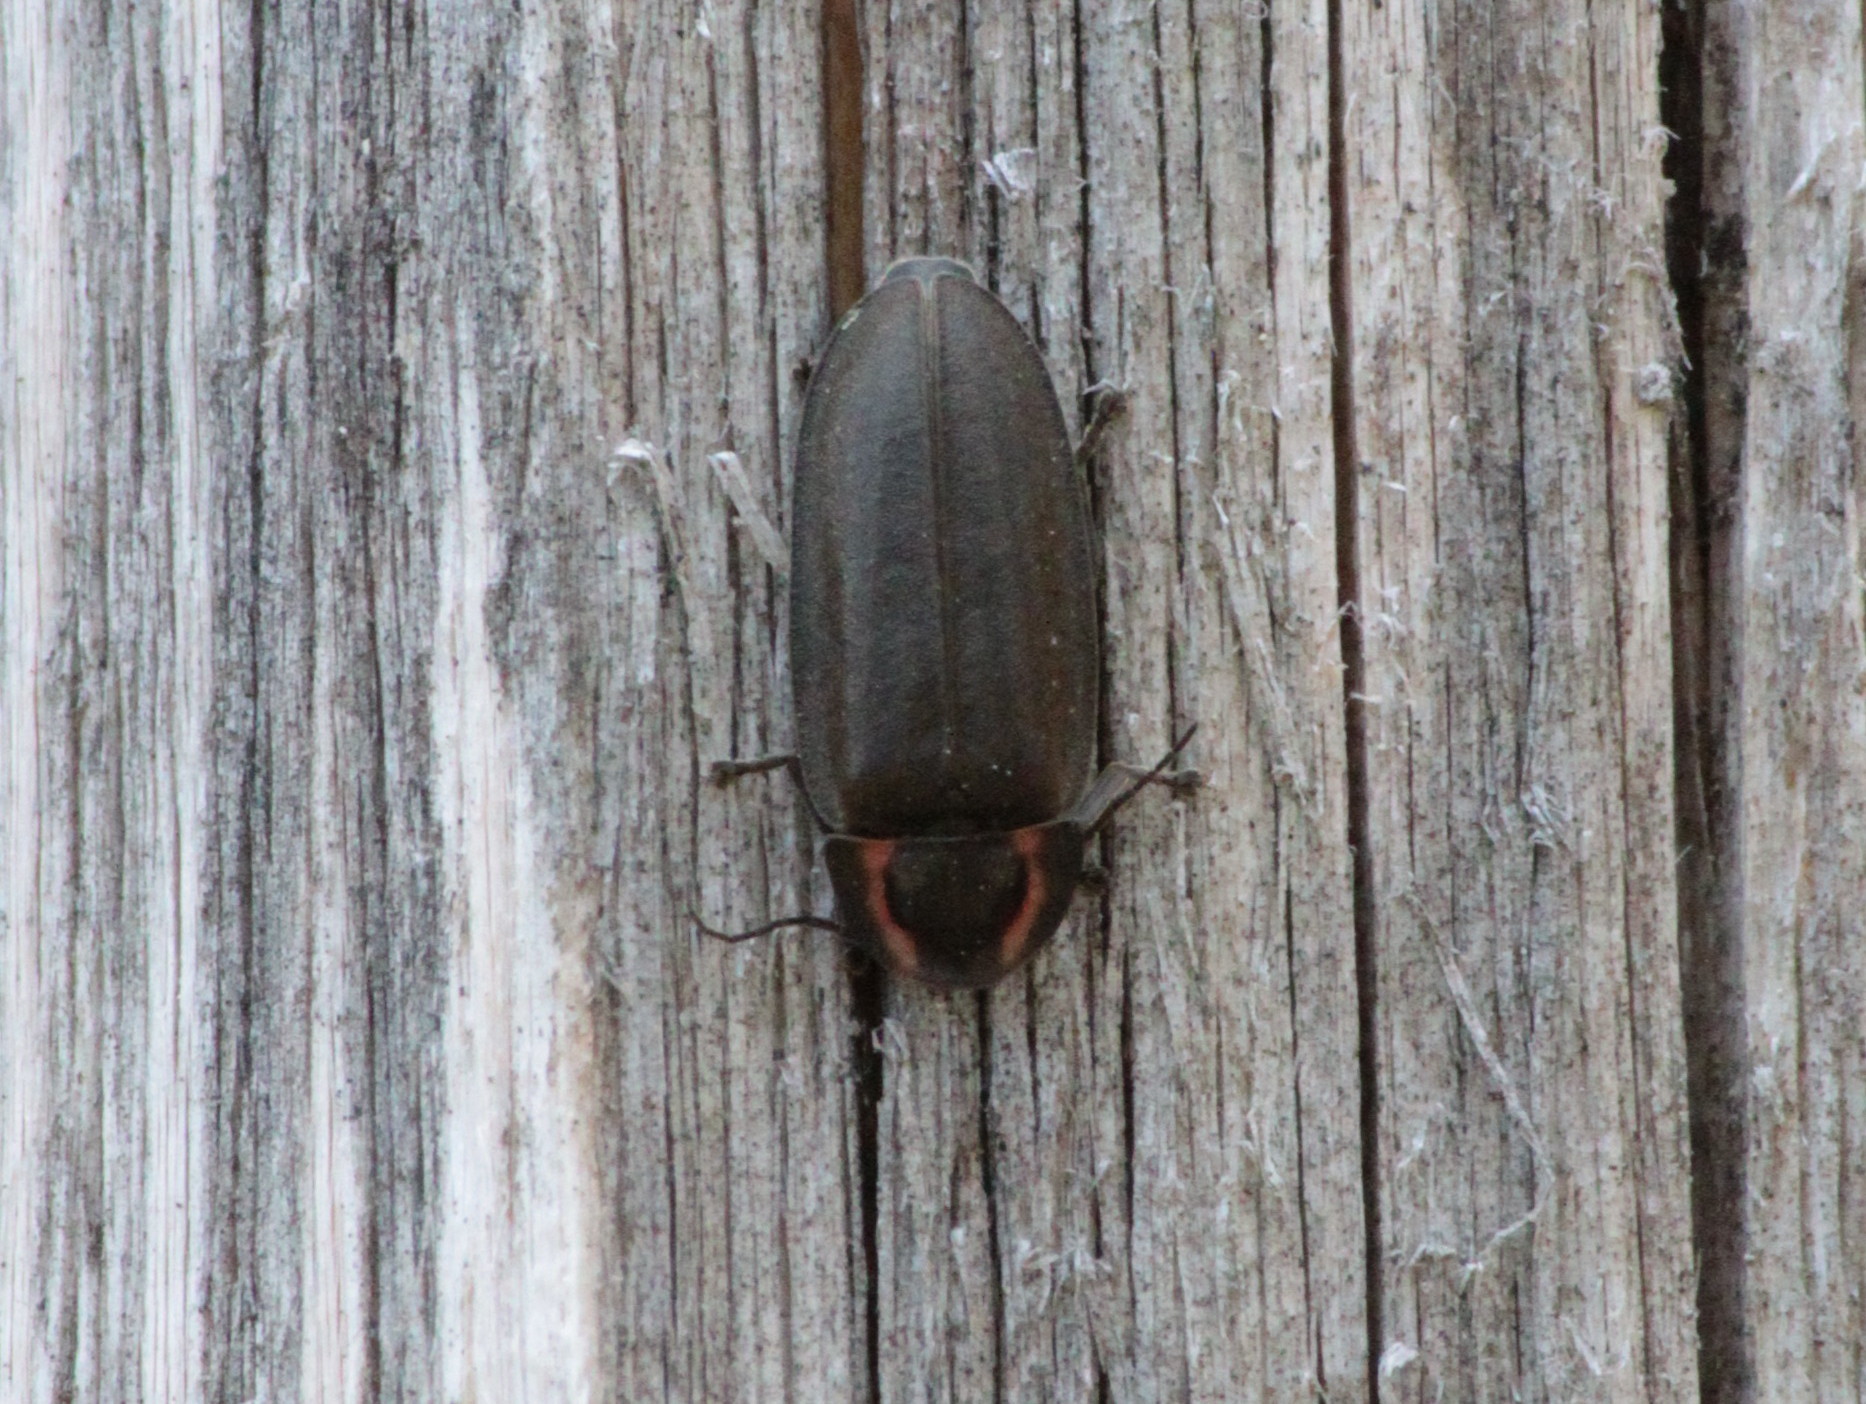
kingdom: Animalia
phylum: Arthropoda
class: Insecta
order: Coleoptera
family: Lampyridae
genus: Photinus
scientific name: Photinus corrusca
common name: Winter firefly
